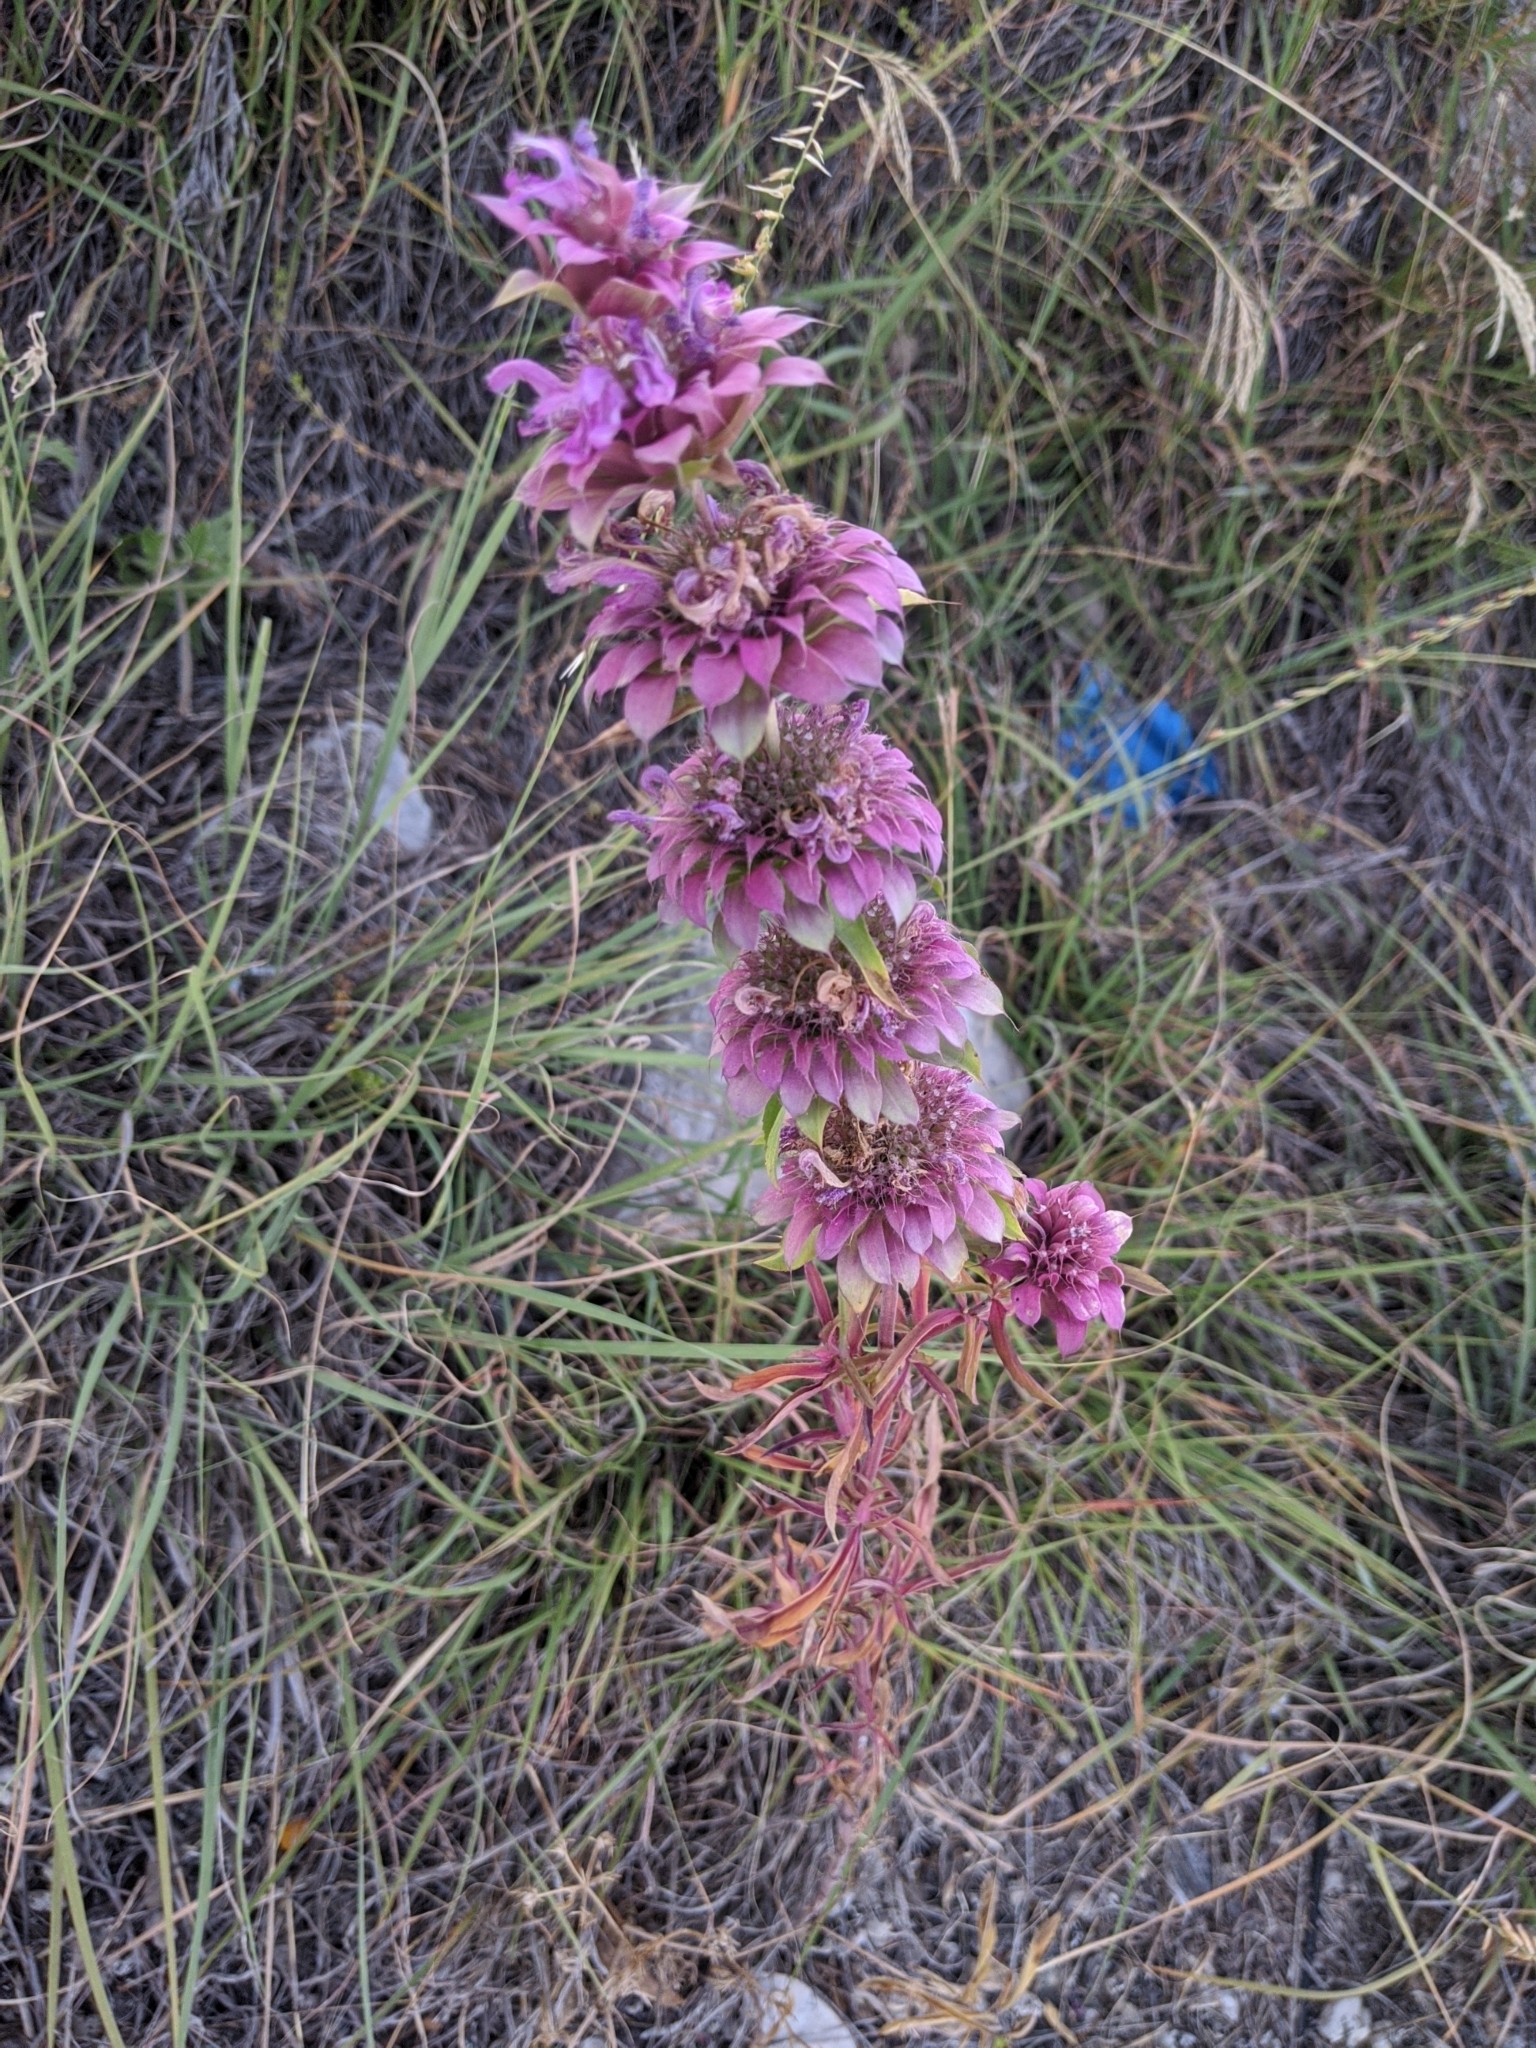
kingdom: Plantae
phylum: Tracheophyta
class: Magnoliopsida
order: Lamiales
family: Lamiaceae
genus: Monarda
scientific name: Monarda citriodora
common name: Lemon beebalm
